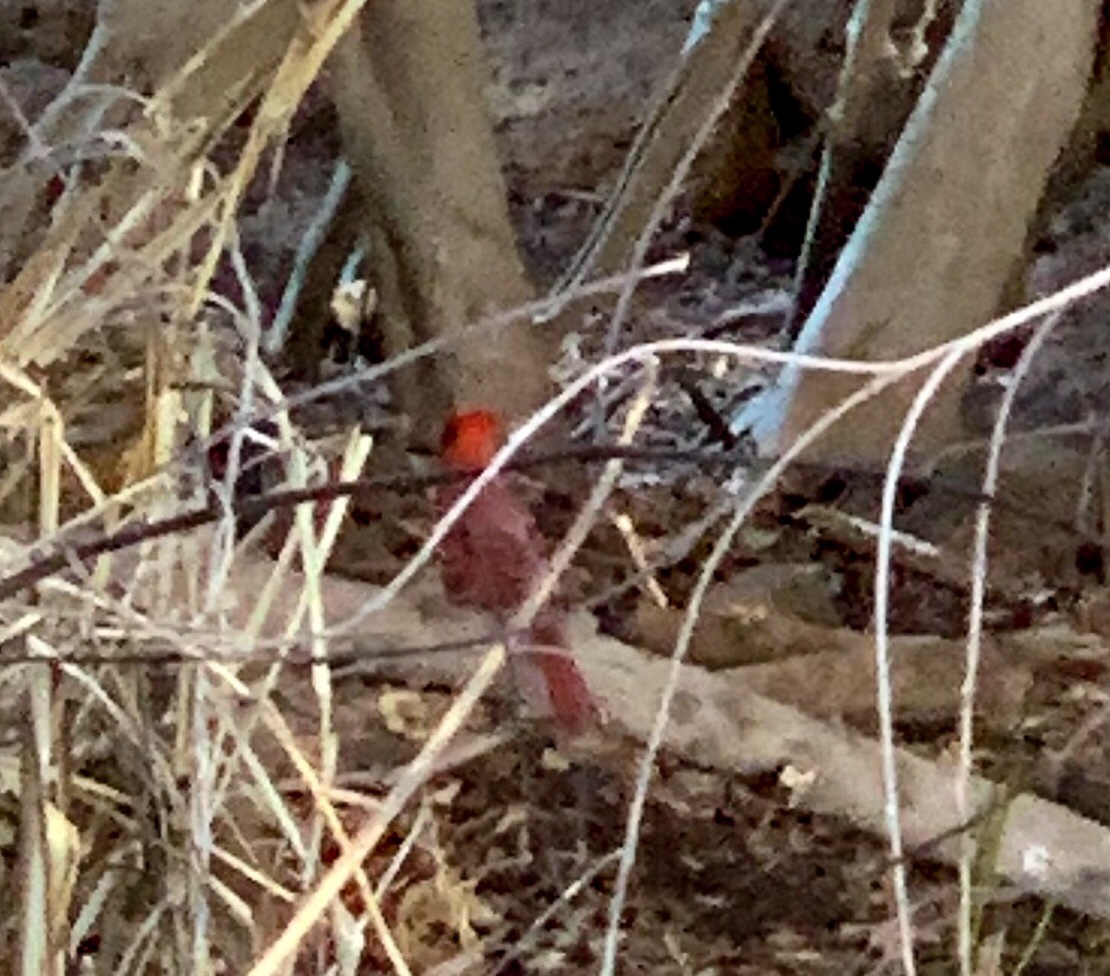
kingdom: Animalia
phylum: Chordata
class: Aves
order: Passeriformes
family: Cardinalidae
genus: Cardinalis
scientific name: Cardinalis cardinalis
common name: Northern cardinal
